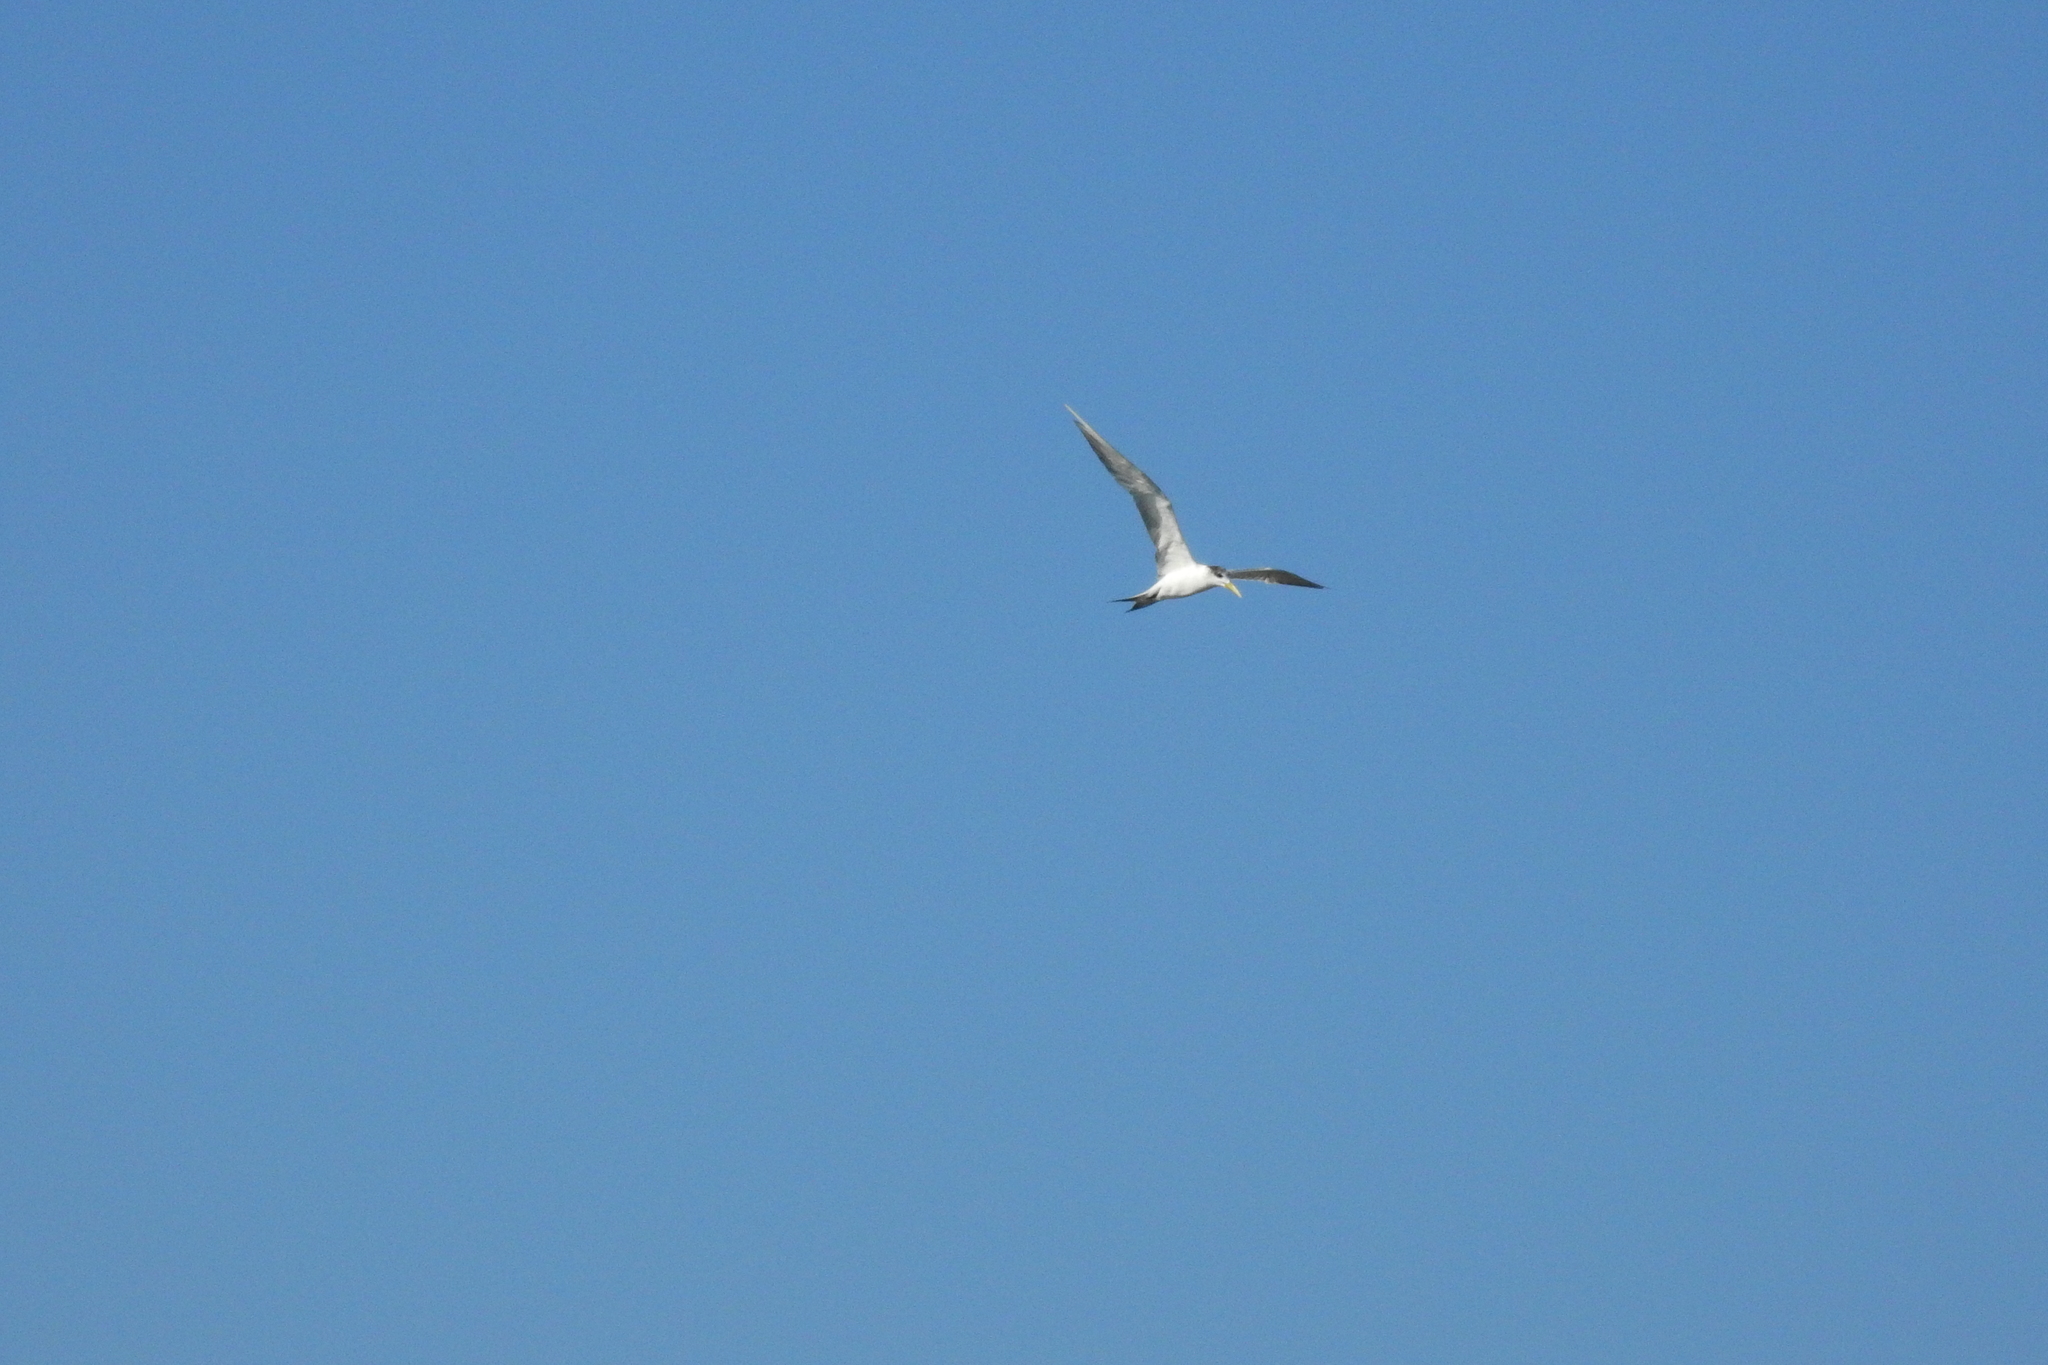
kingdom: Animalia
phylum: Chordata
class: Aves
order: Charadriiformes
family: Laridae
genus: Thalasseus
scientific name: Thalasseus bergii
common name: Greater crested tern
